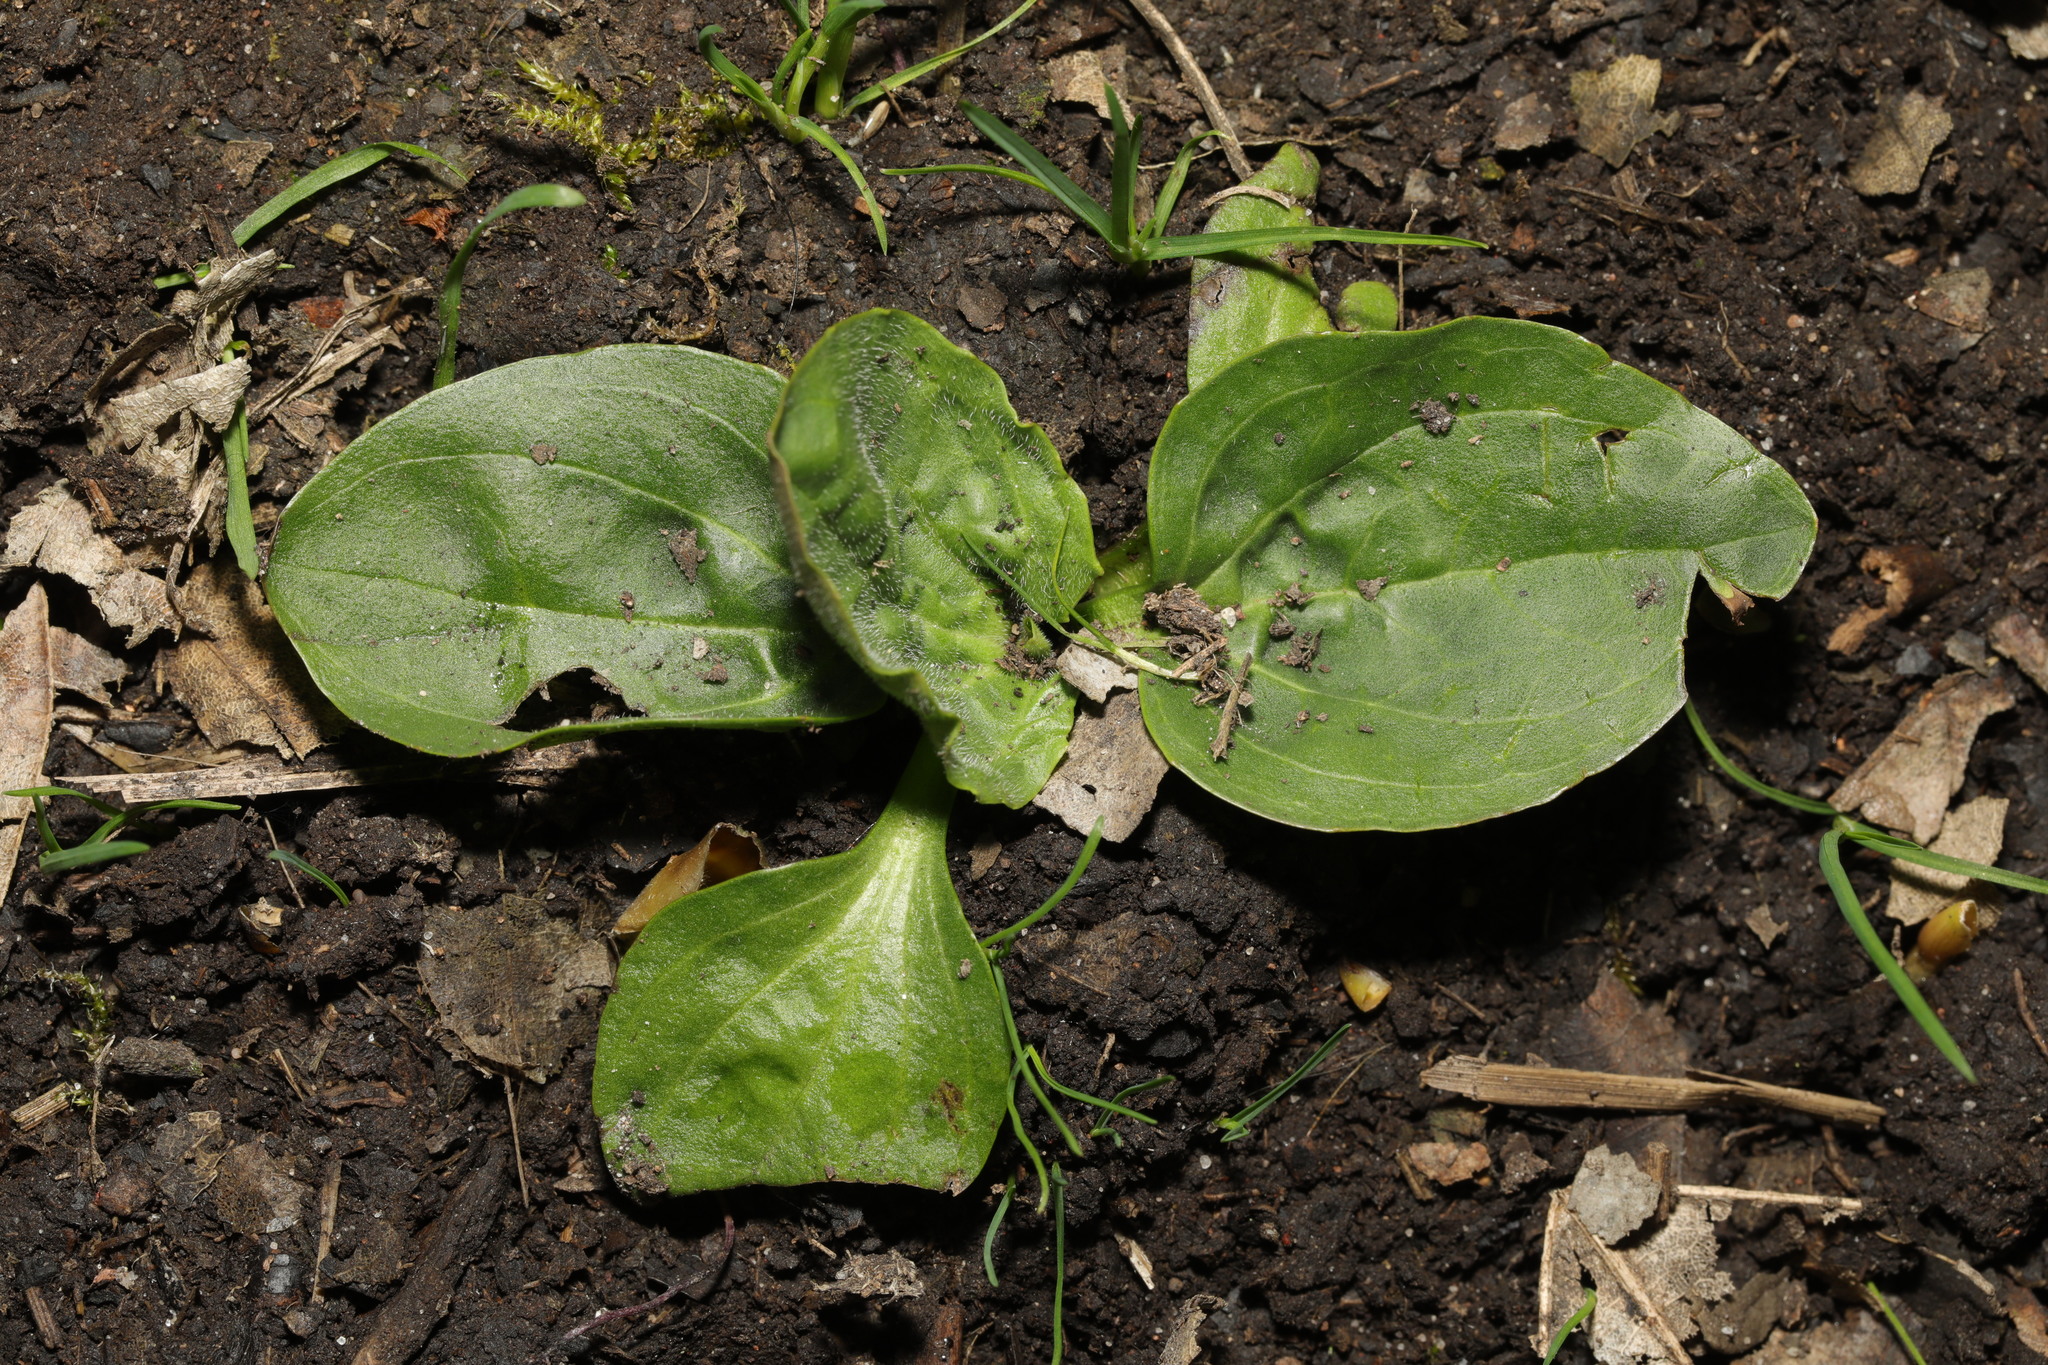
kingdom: Plantae
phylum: Tracheophyta
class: Magnoliopsida
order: Lamiales
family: Plantaginaceae
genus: Plantago
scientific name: Plantago major
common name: Common plantain
